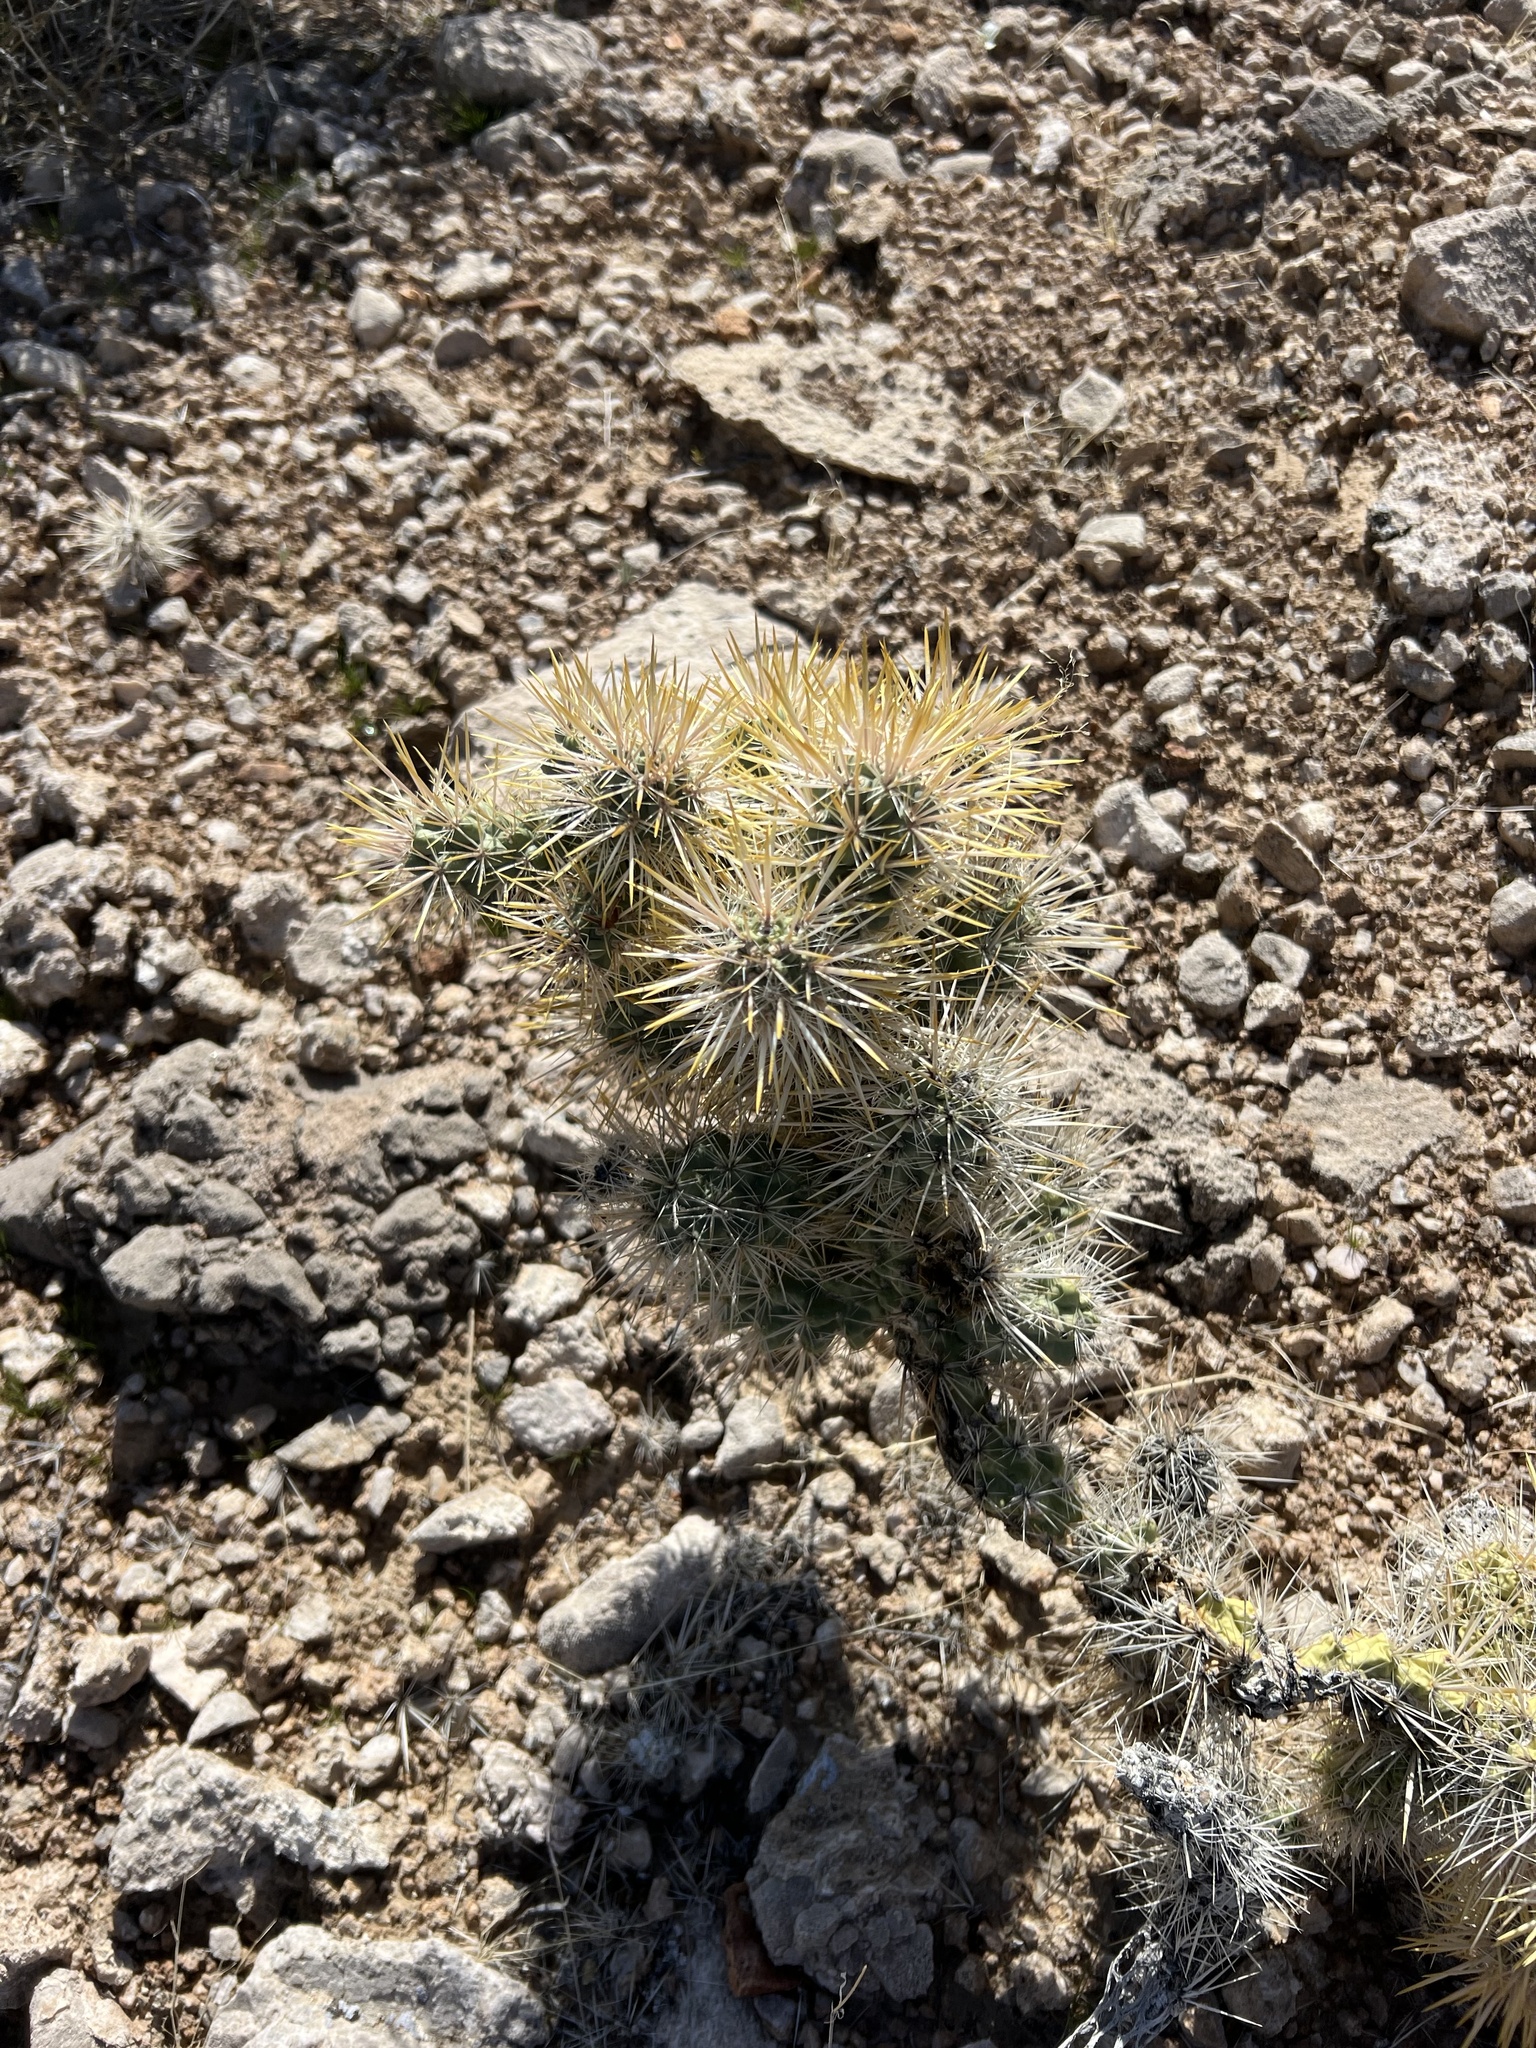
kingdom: Plantae
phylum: Tracheophyta
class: Magnoliopsida
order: Caryophyllales
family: Cactaceae
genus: Cylindropuntia
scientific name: Cylindropuntia echinocarpa
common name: Ground cholla
